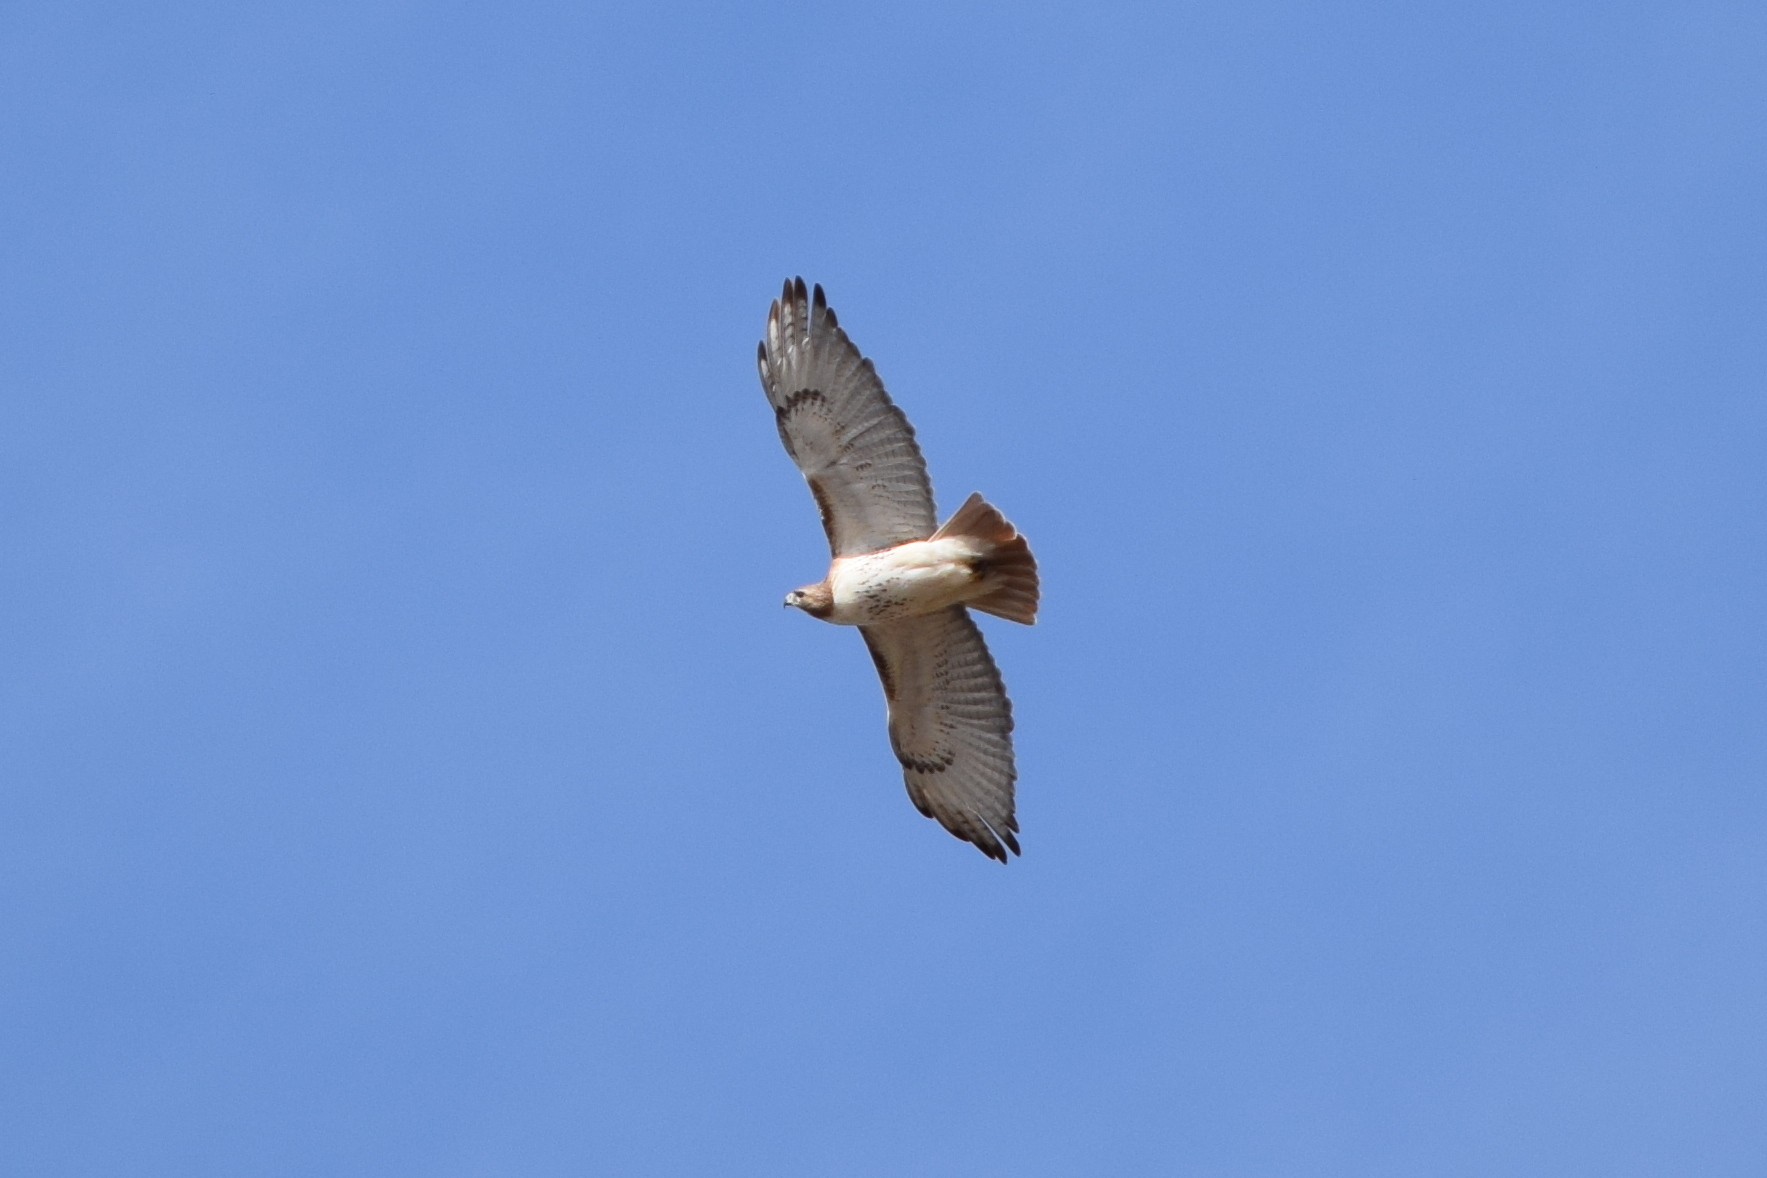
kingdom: Animalia
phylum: Chordata
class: Aves
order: Accipitriformes
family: Accipitridae
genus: Buteo
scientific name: Buteo jamaicensis
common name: Red-tailed hawk
